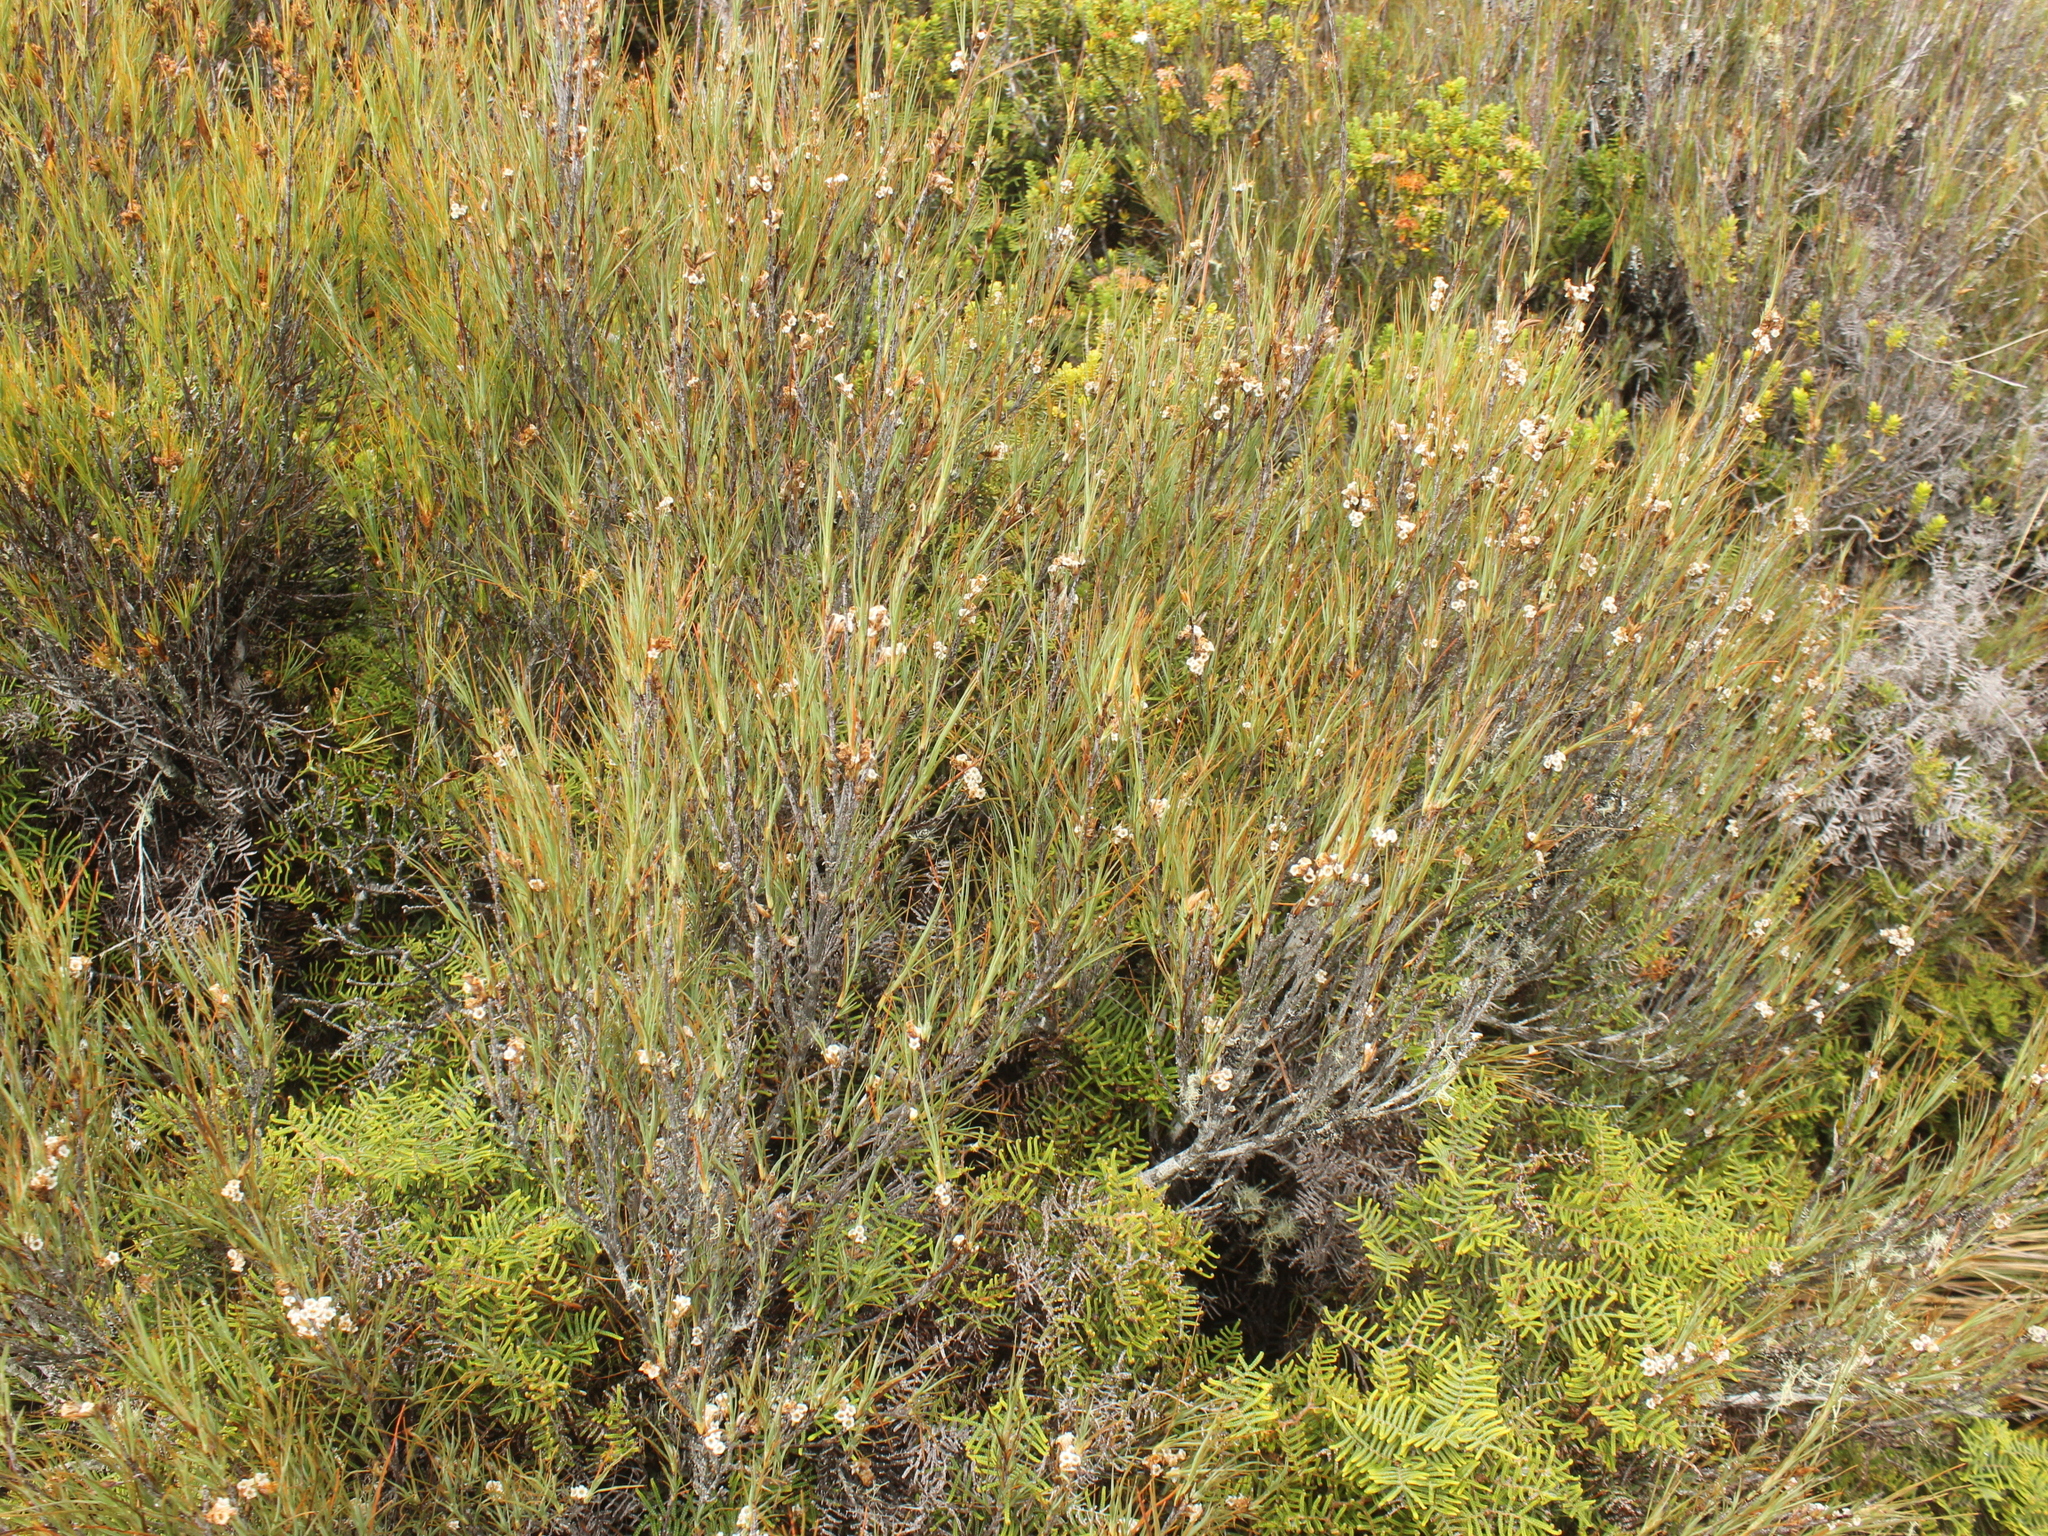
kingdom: Plantae
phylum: Tracheophyta
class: Magnoliopsida
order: Ericales
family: Ericaceae
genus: Dracophyllum
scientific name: Dracophyllum subulatum
